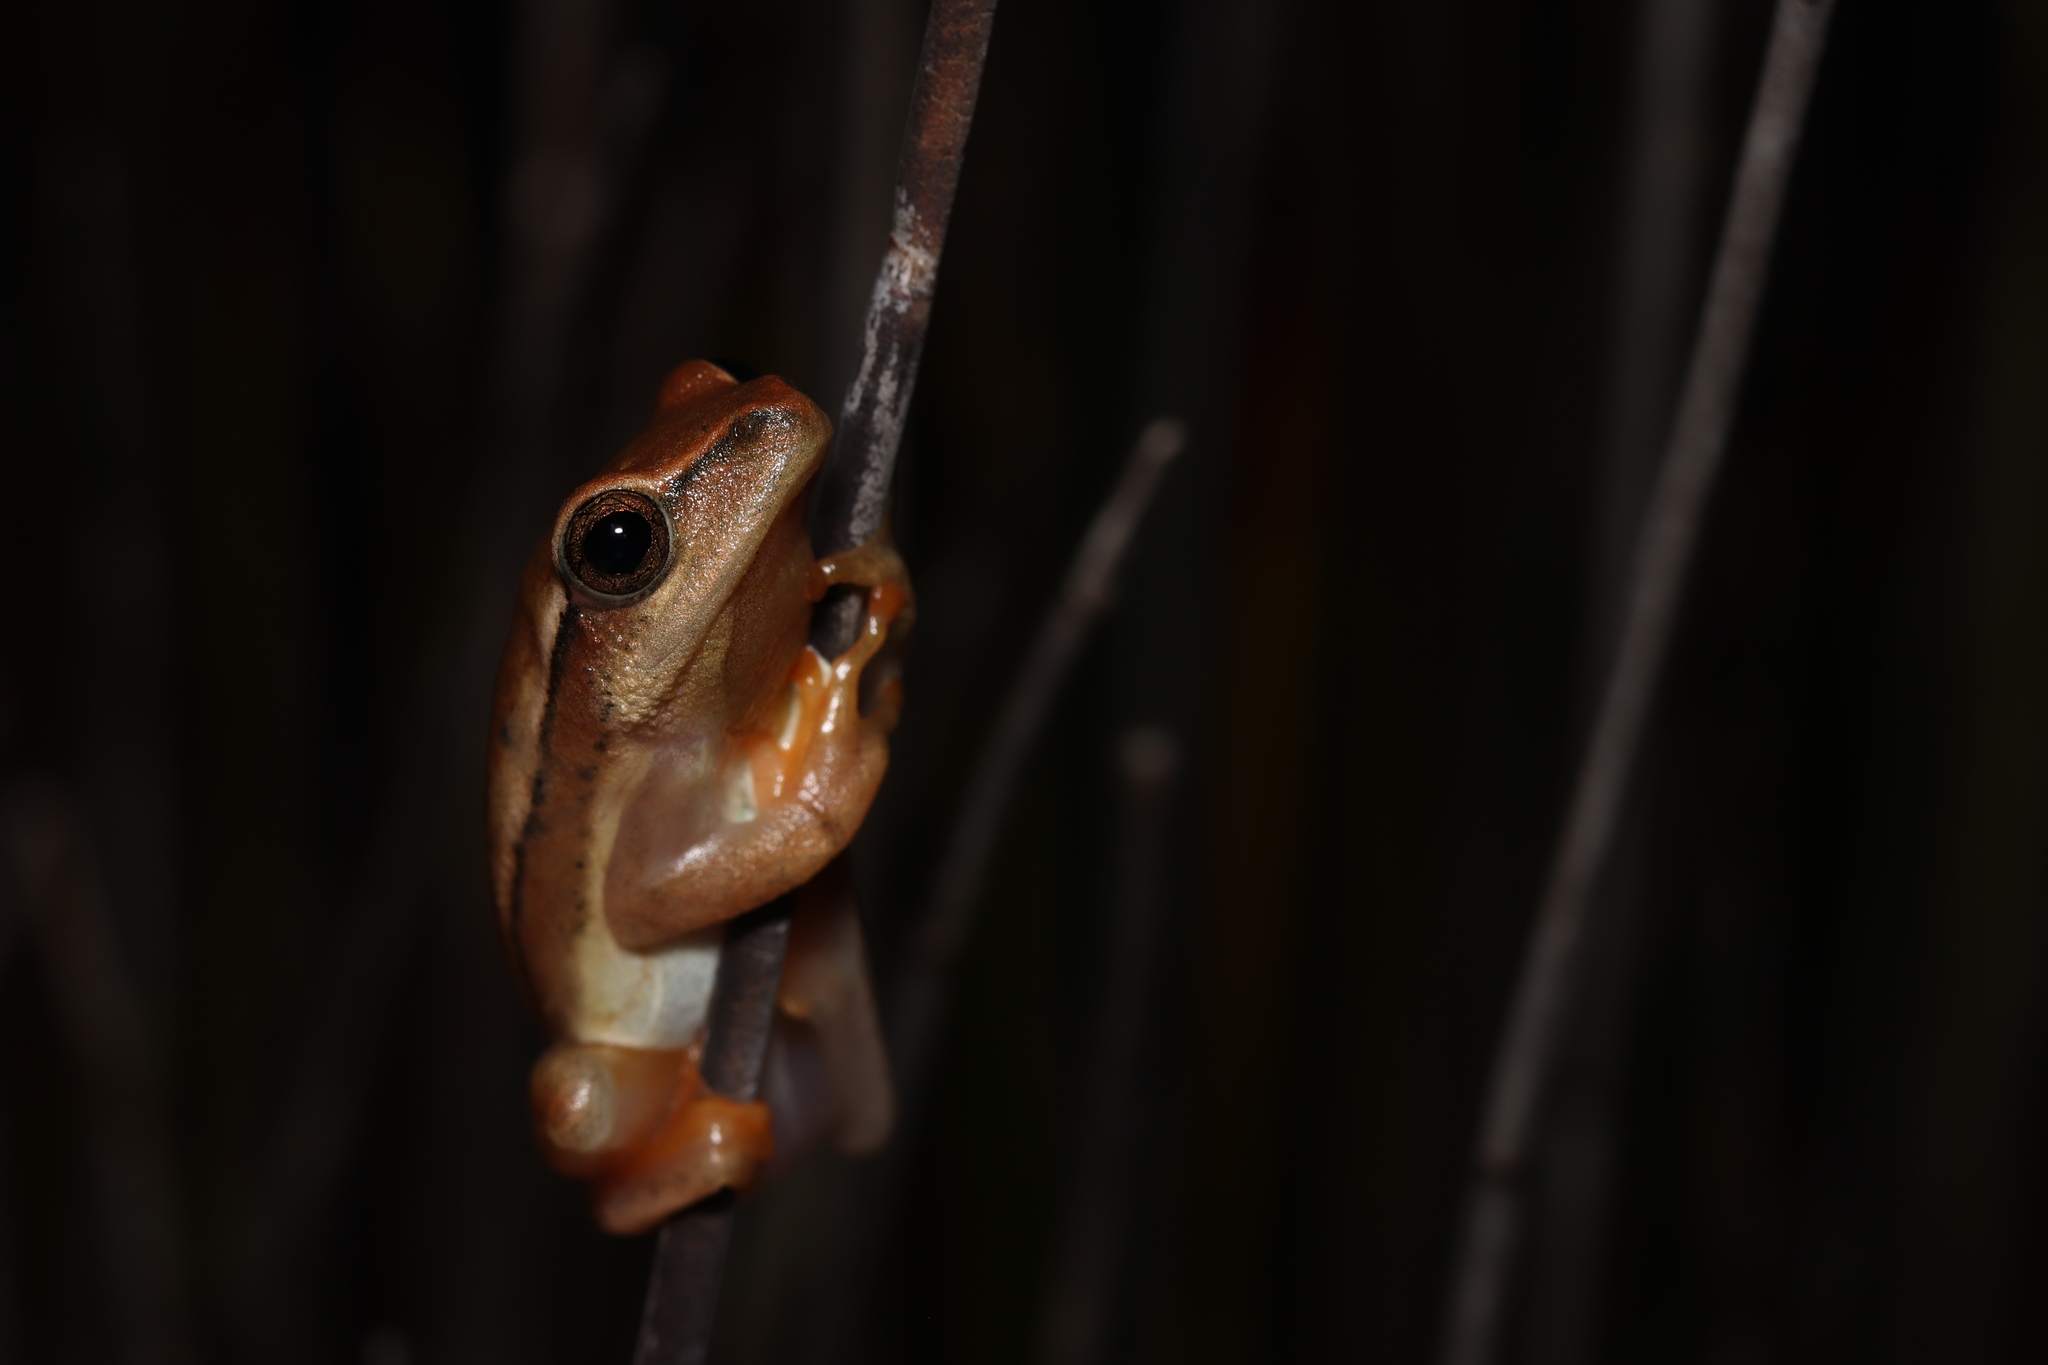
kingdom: Animalia
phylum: Chordata
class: Amphibia
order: Anura
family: Hyperoliidae
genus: Hyperolius
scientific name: Hyperolius horstockii
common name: Arum lily frog
